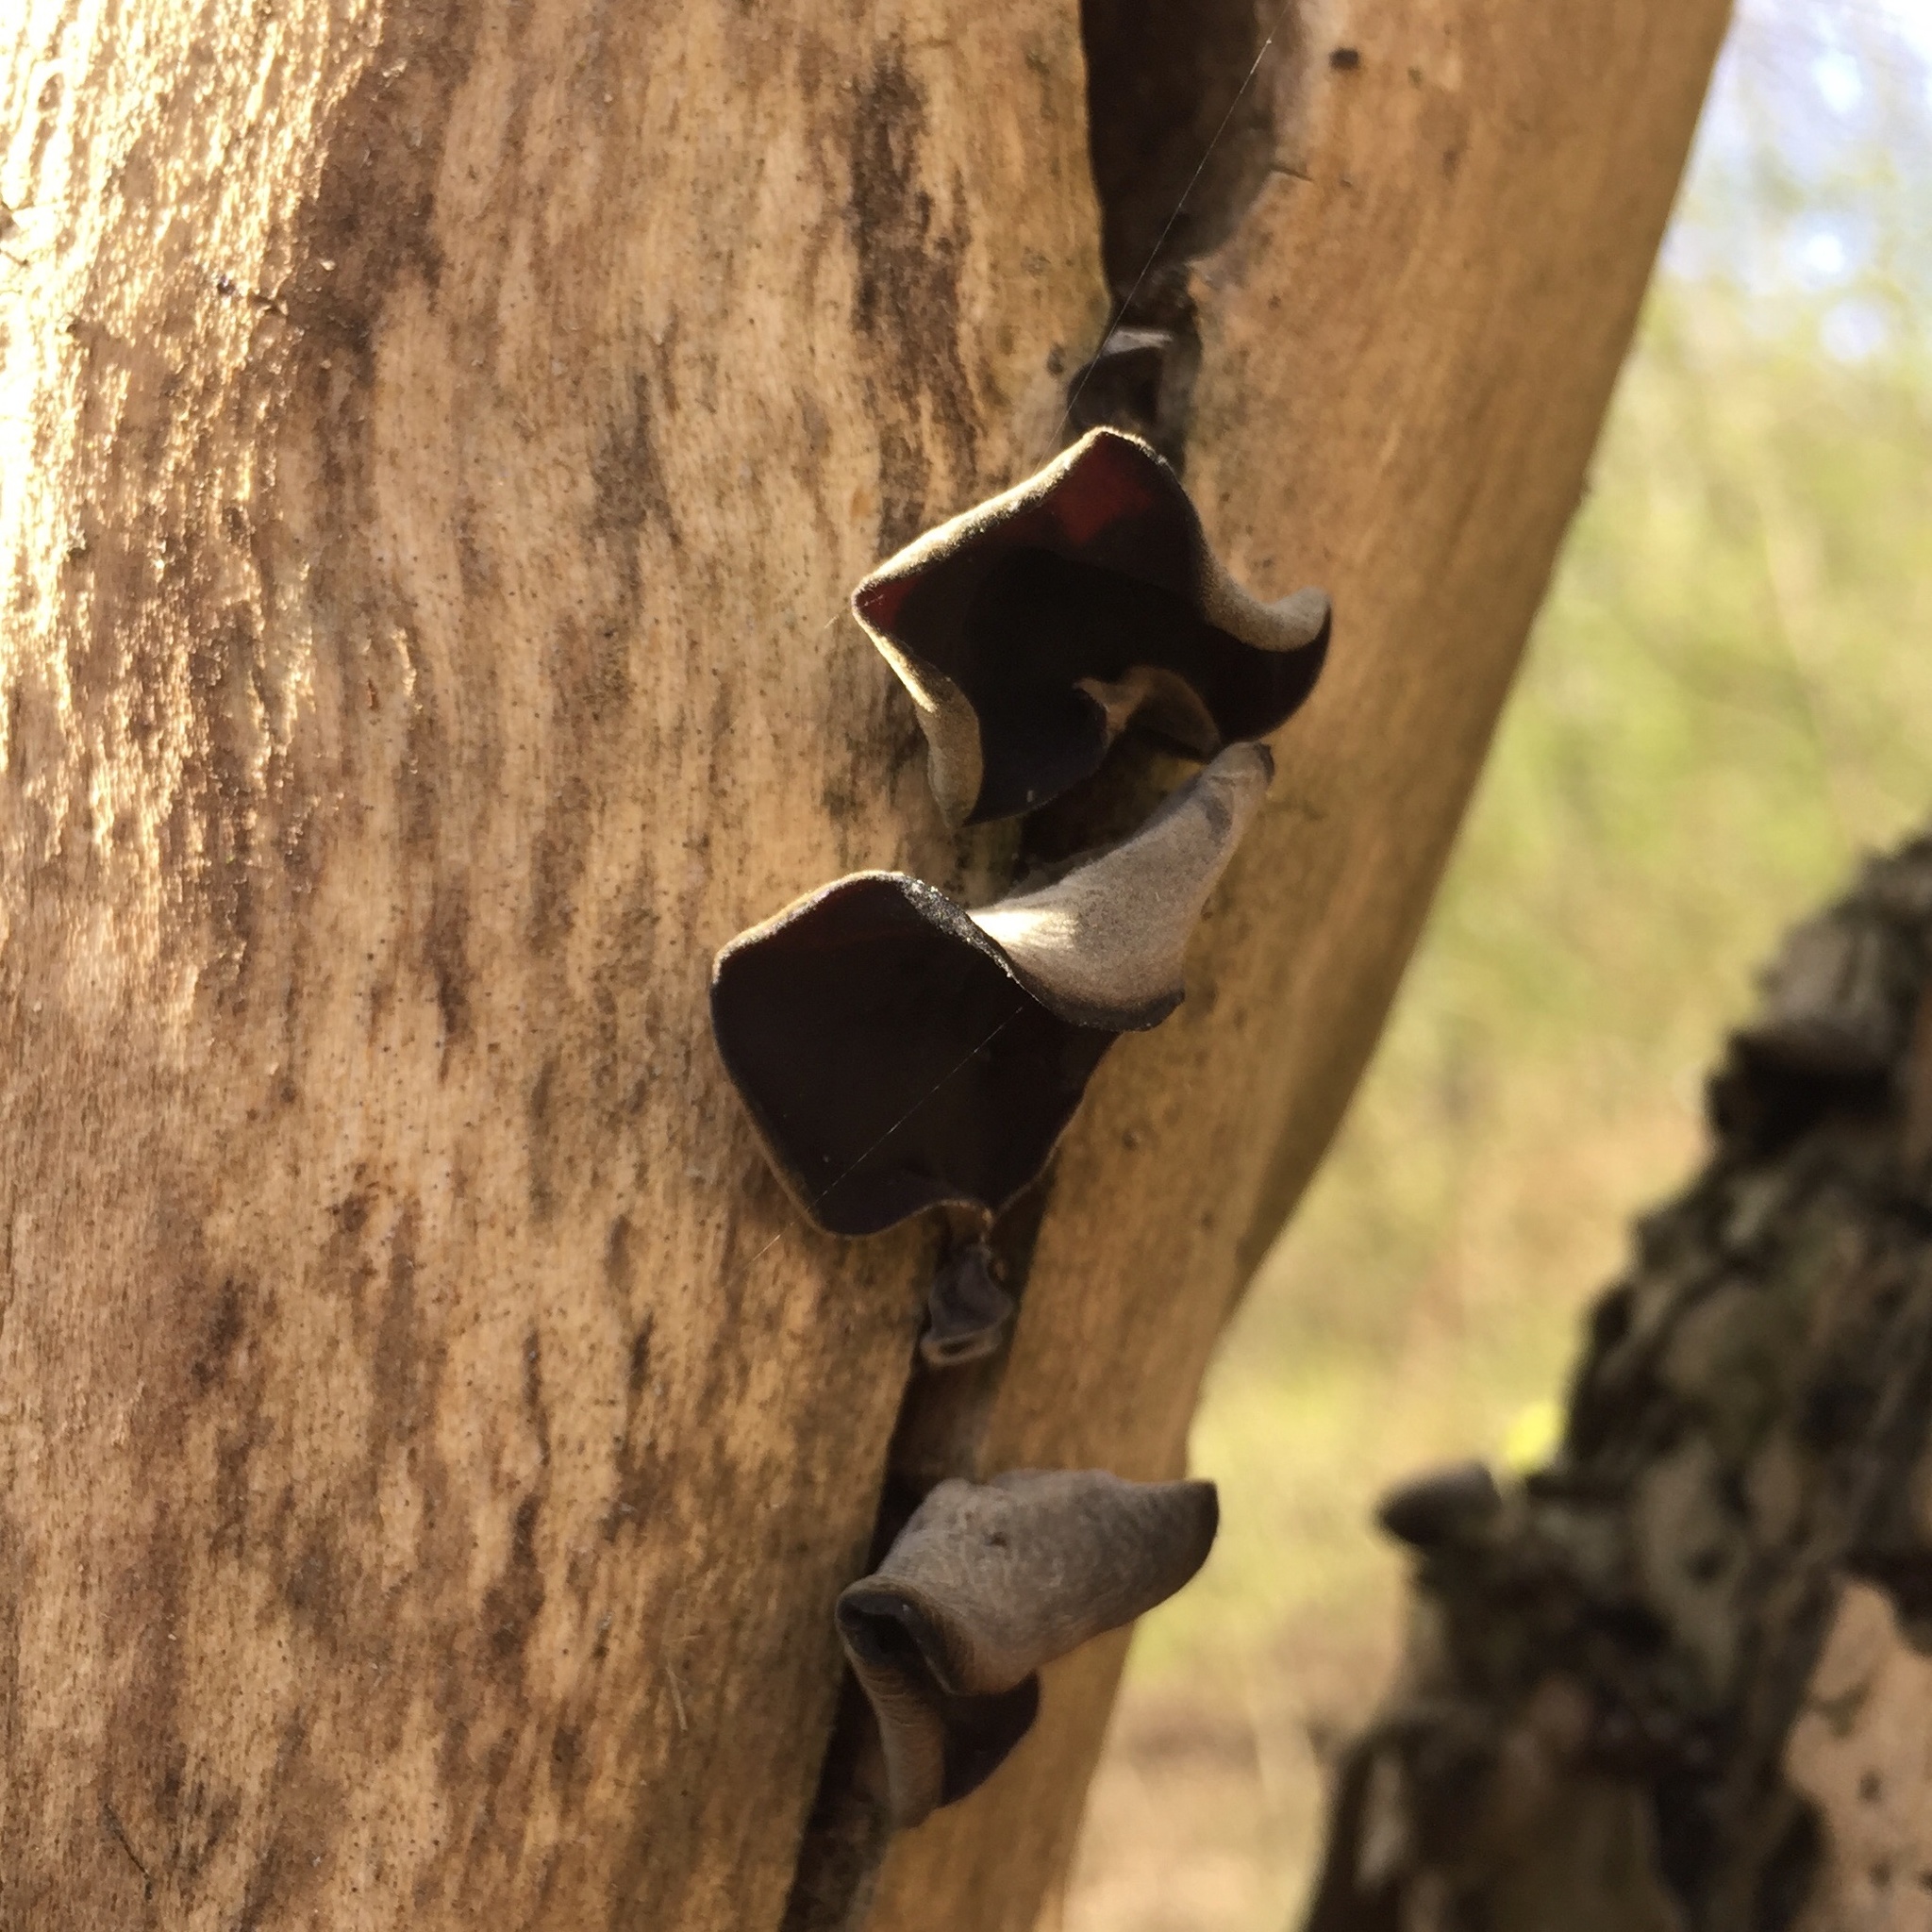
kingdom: Fungi
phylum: Basidiomycota
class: Agaricomycetes
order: Auriculariales
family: Auriculariaceae
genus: Auricularia
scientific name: Auricularia auricula-judae
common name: Jelly ear
